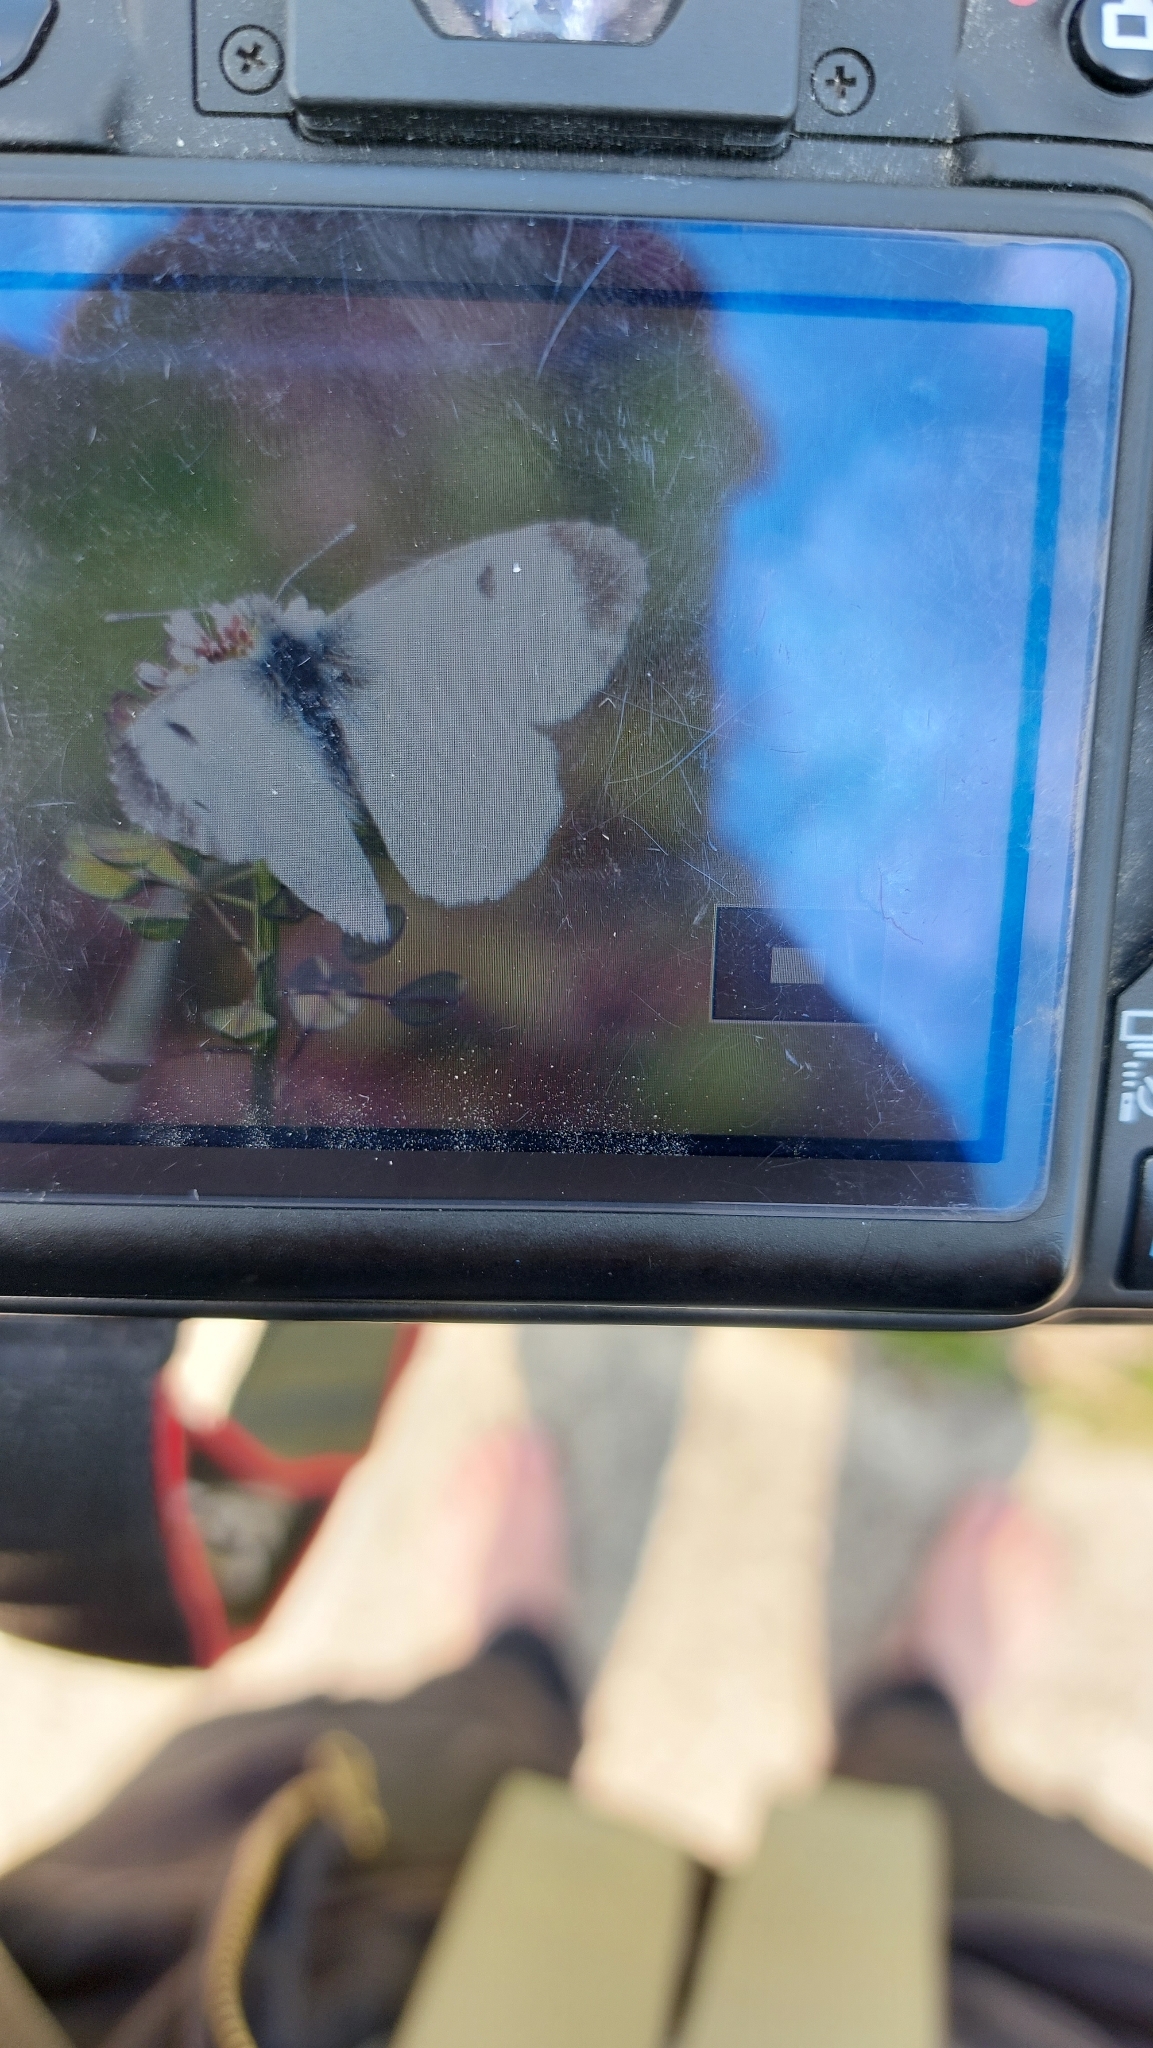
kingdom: Animalia
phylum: Arthropoda
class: Insecta
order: Lepidoptera
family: Pieridae
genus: Anthocharis
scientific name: Anthocharis cardamines
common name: Orange-tip
